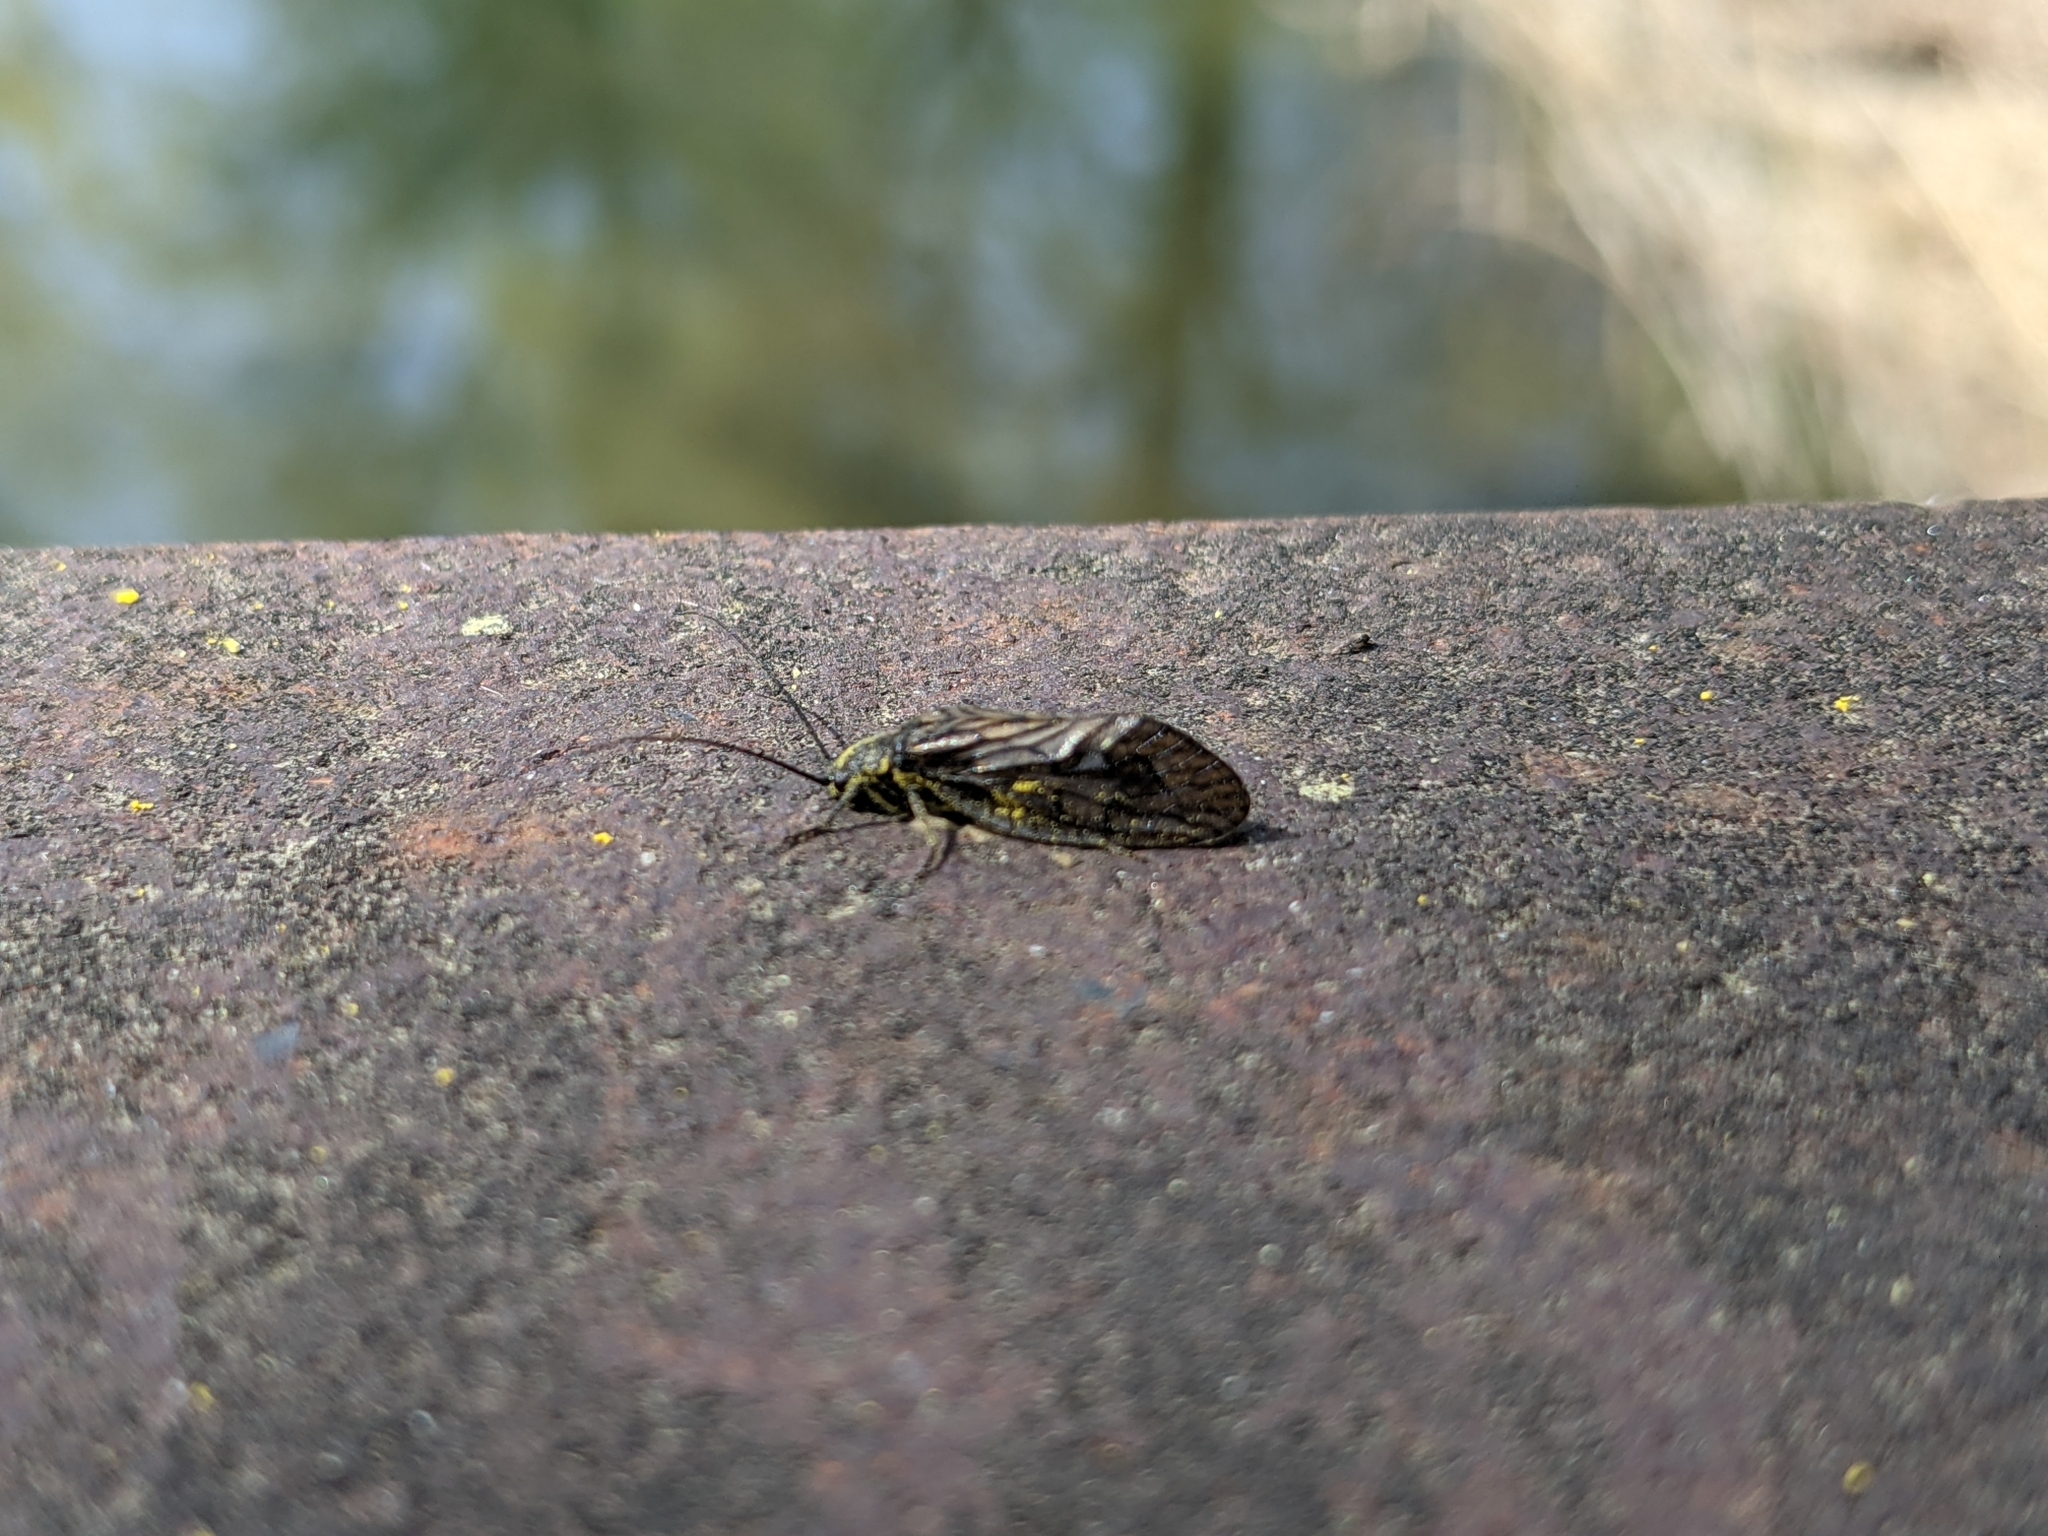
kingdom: Animalia
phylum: Arthropoda
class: Insecta
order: Megaloptera
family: Sialidae
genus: Sialis
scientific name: Sialis
